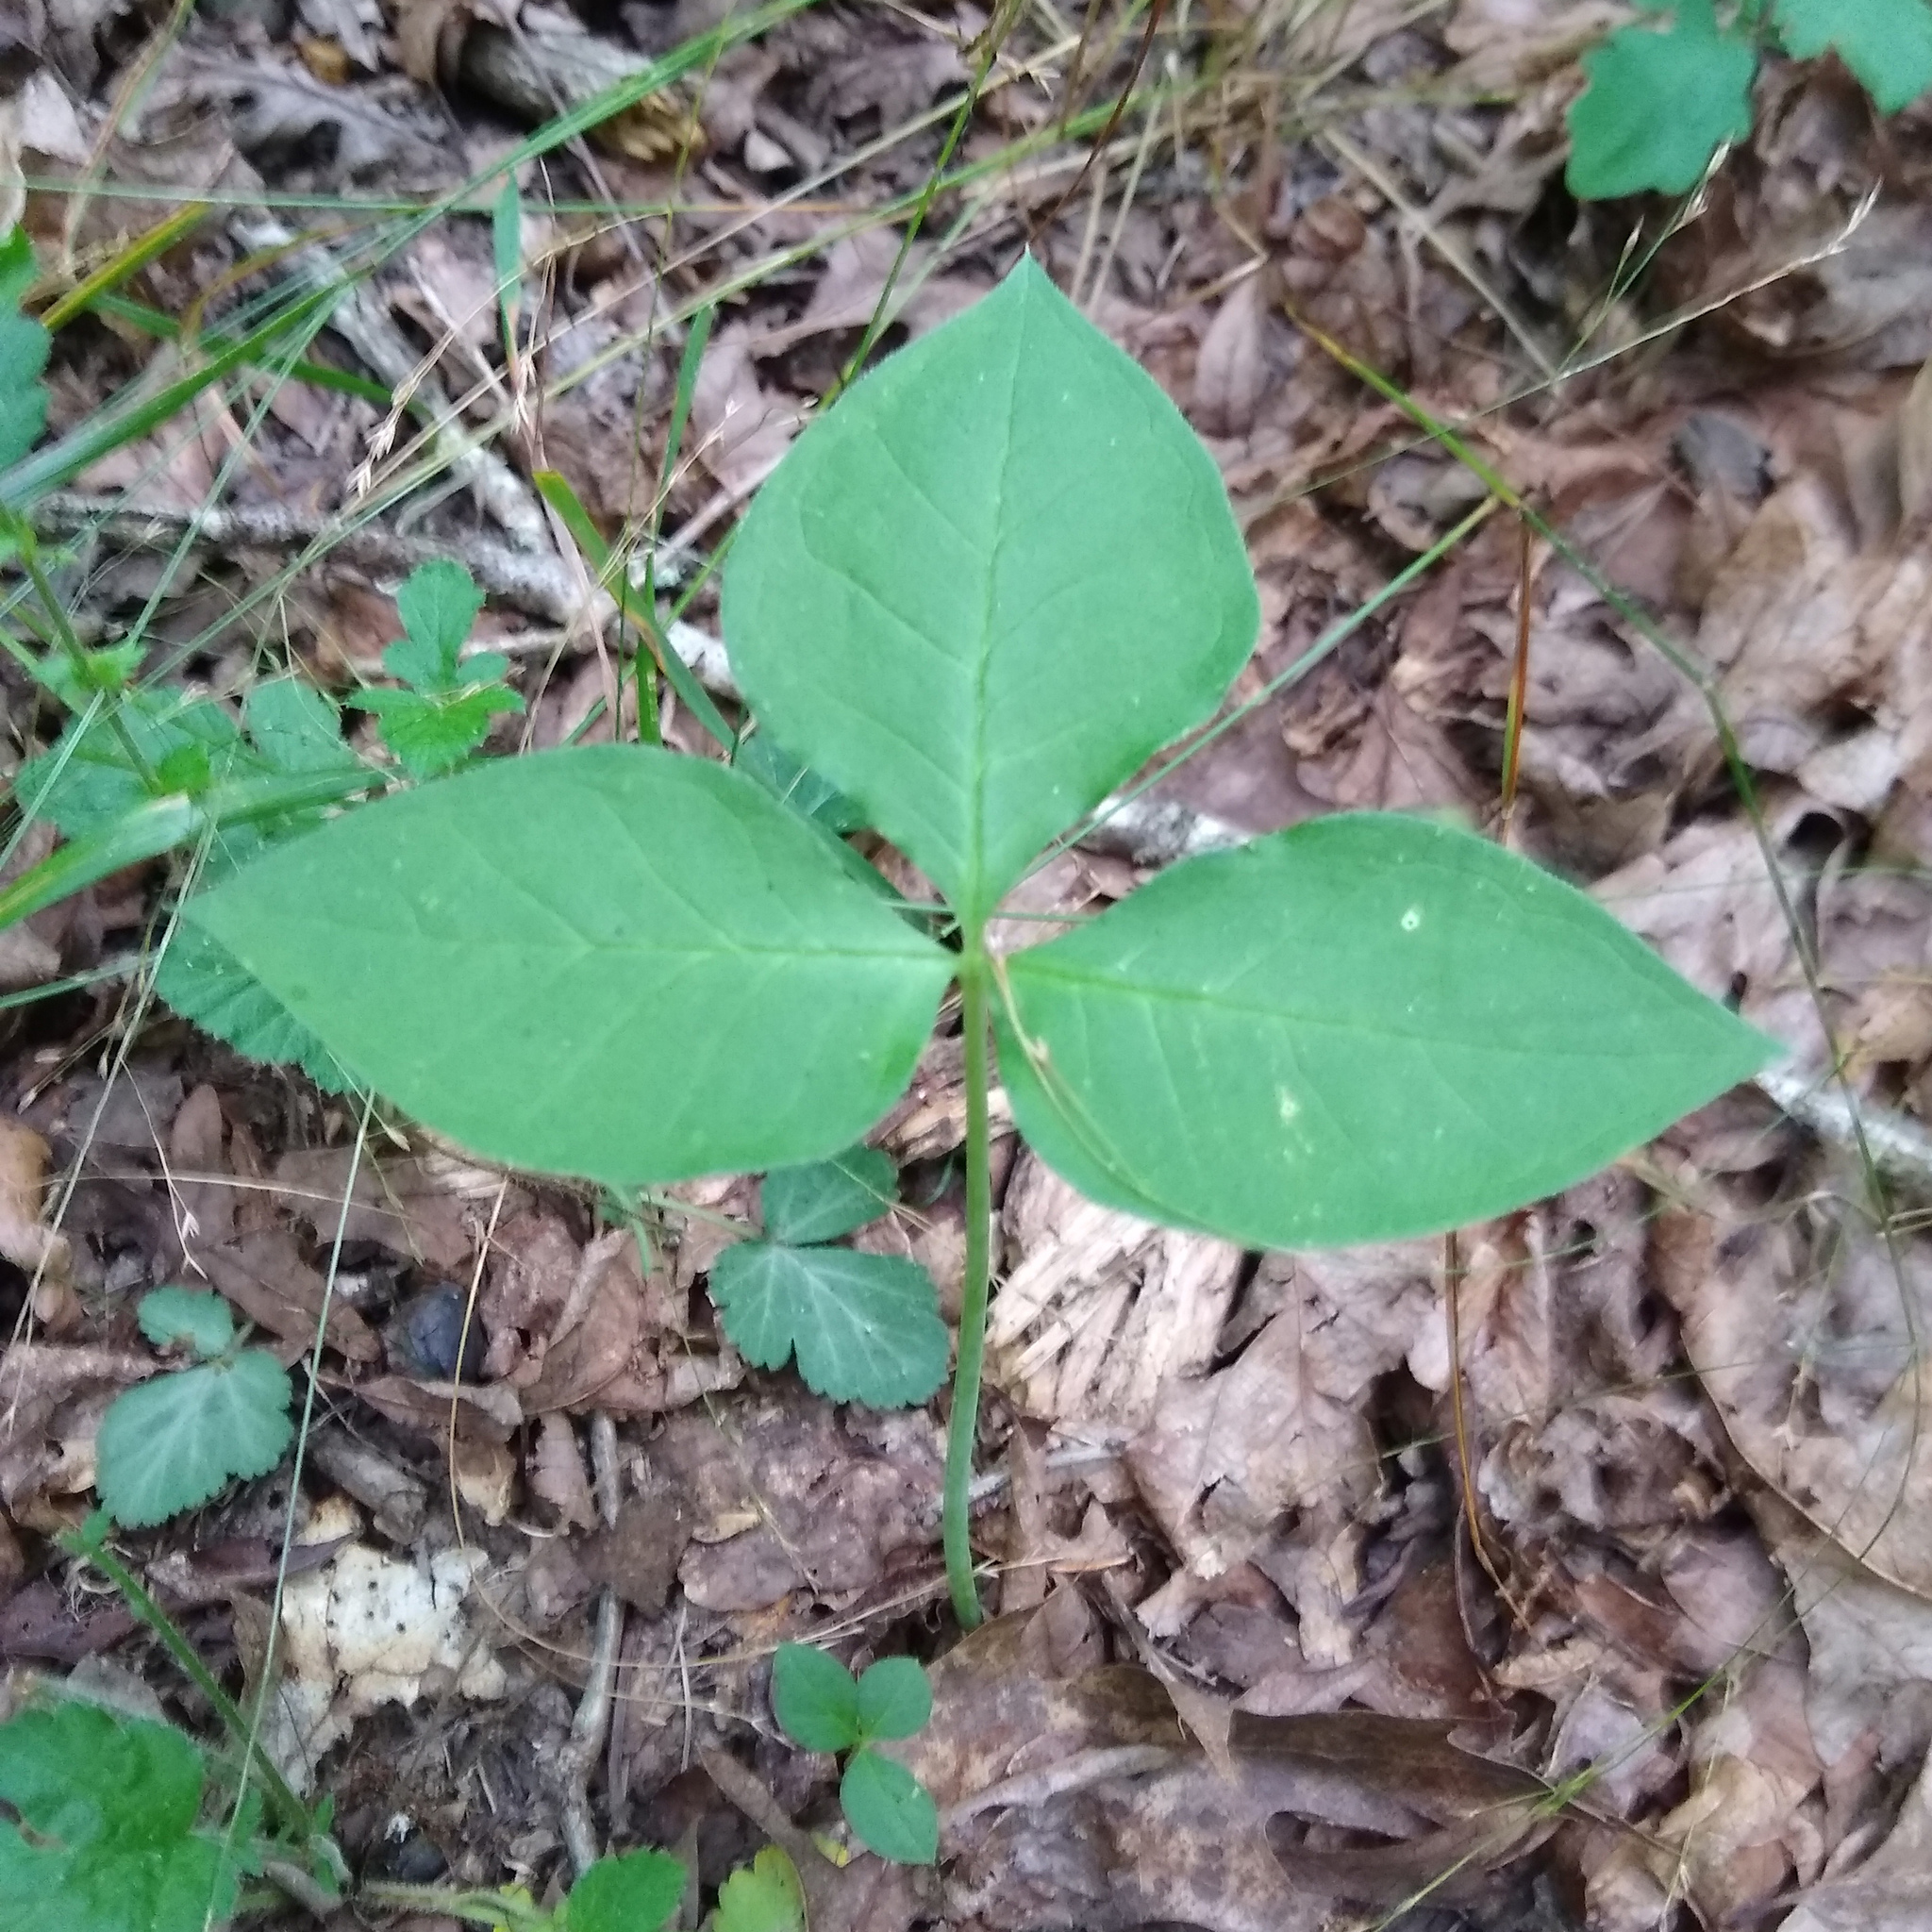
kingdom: Plantae
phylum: Tracheophyta
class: Liliopsida
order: Alismatales
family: Araceae
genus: Arisaema
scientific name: Arisaema triphyllum
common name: Jack-in-the-pulpit
